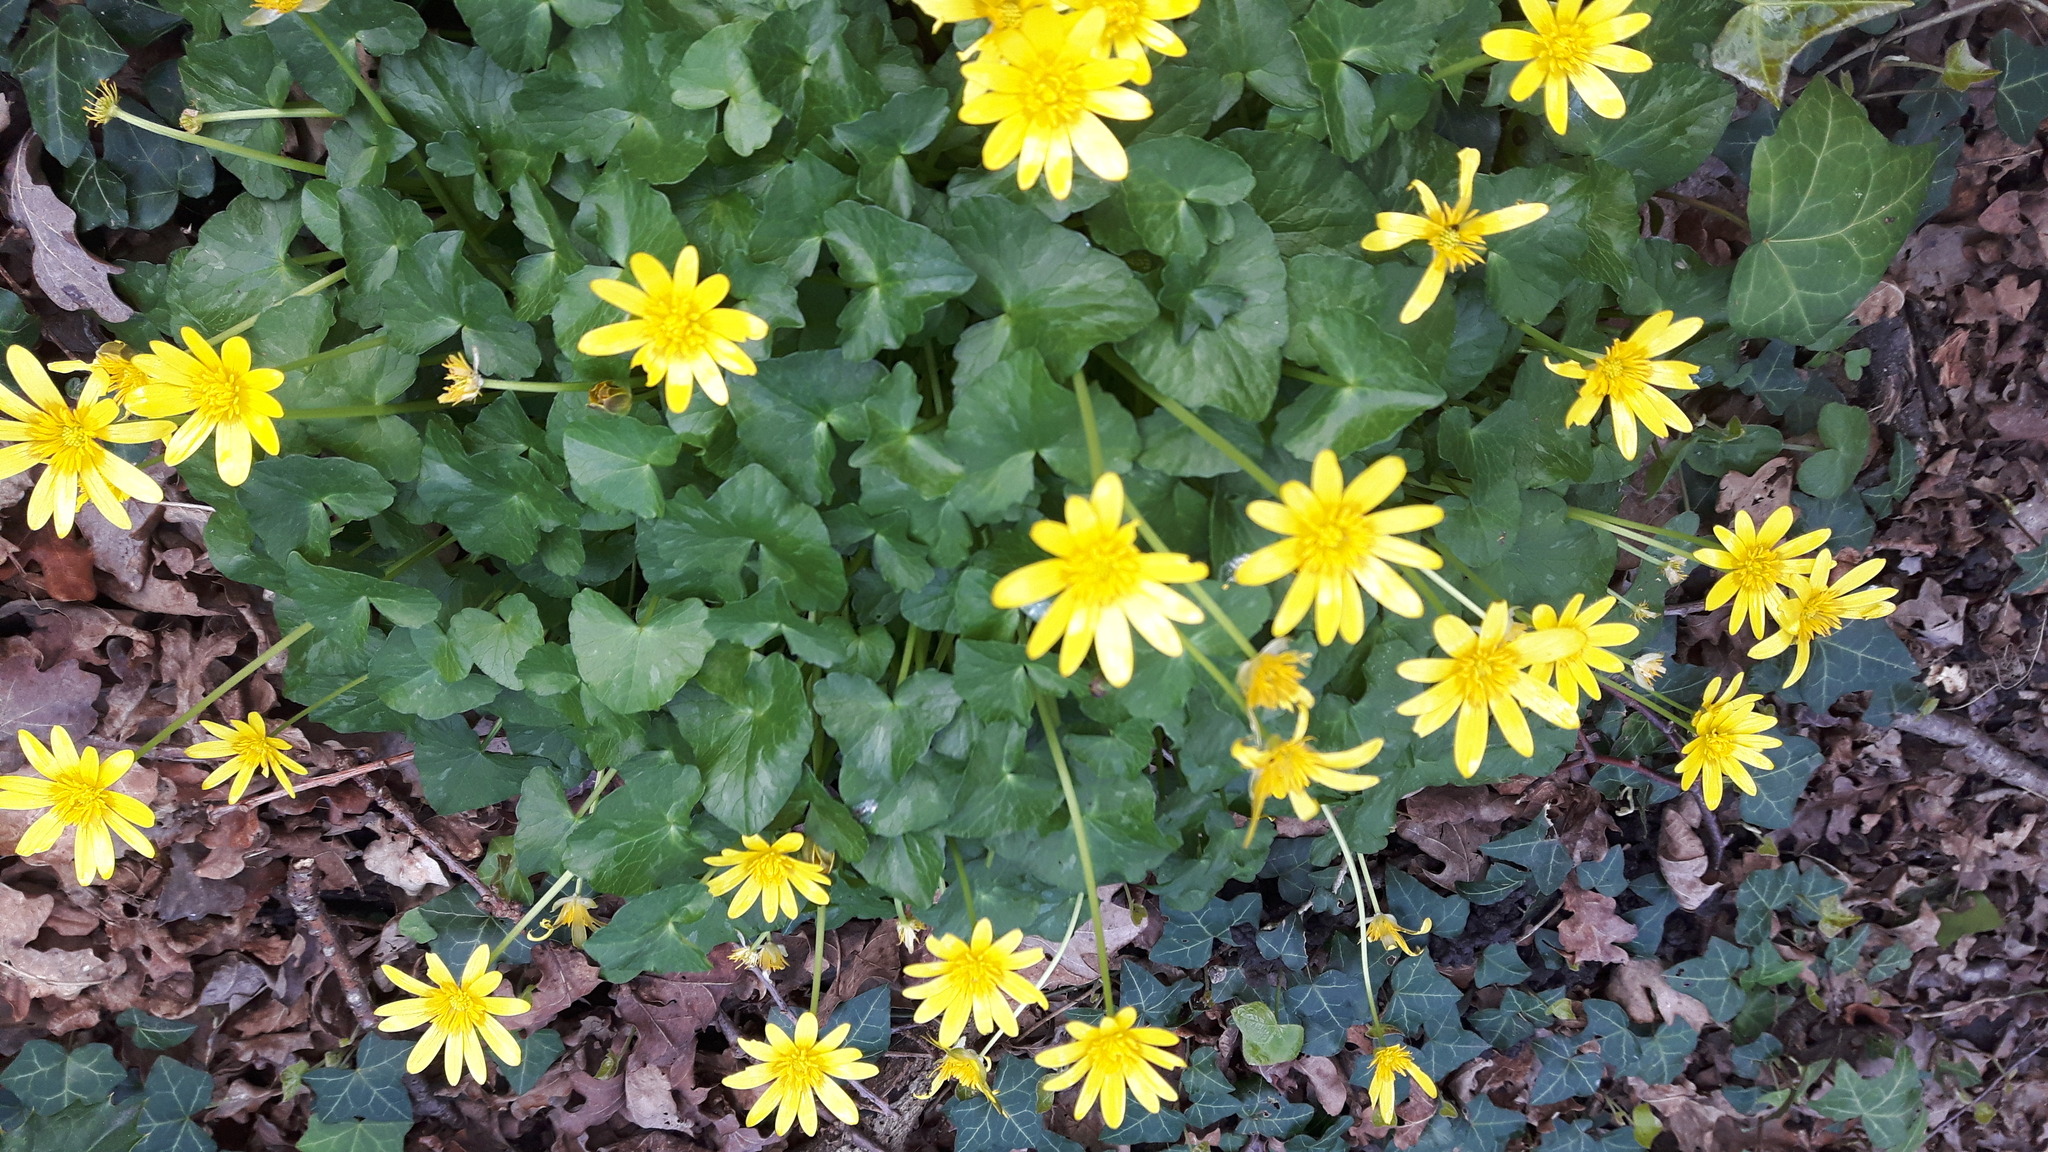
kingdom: Plantae
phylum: Tracheophyta
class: Magnoliopsida
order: Ranunculales
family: Ranunculaceae
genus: Ficaria
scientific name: Ficaria verna
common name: Lesser celandine
